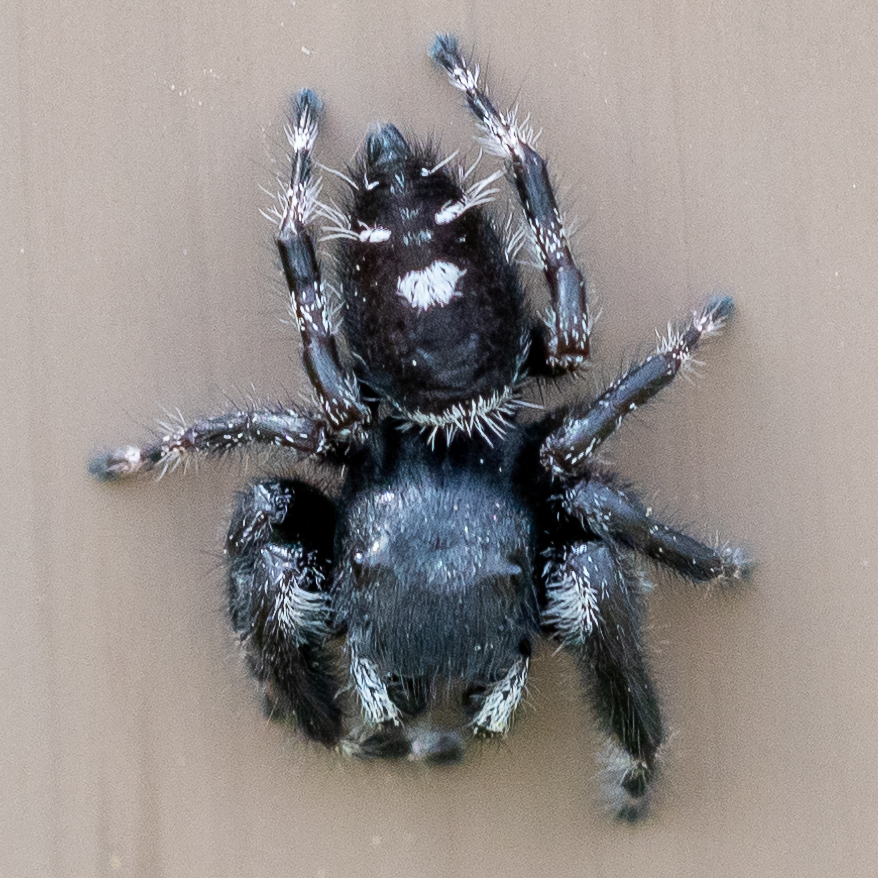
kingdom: Animalia
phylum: Arthropoda
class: Arachnida
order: Araneae
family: Salticidae
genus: Phidippus
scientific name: Phidippus audax
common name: Bold jumper
